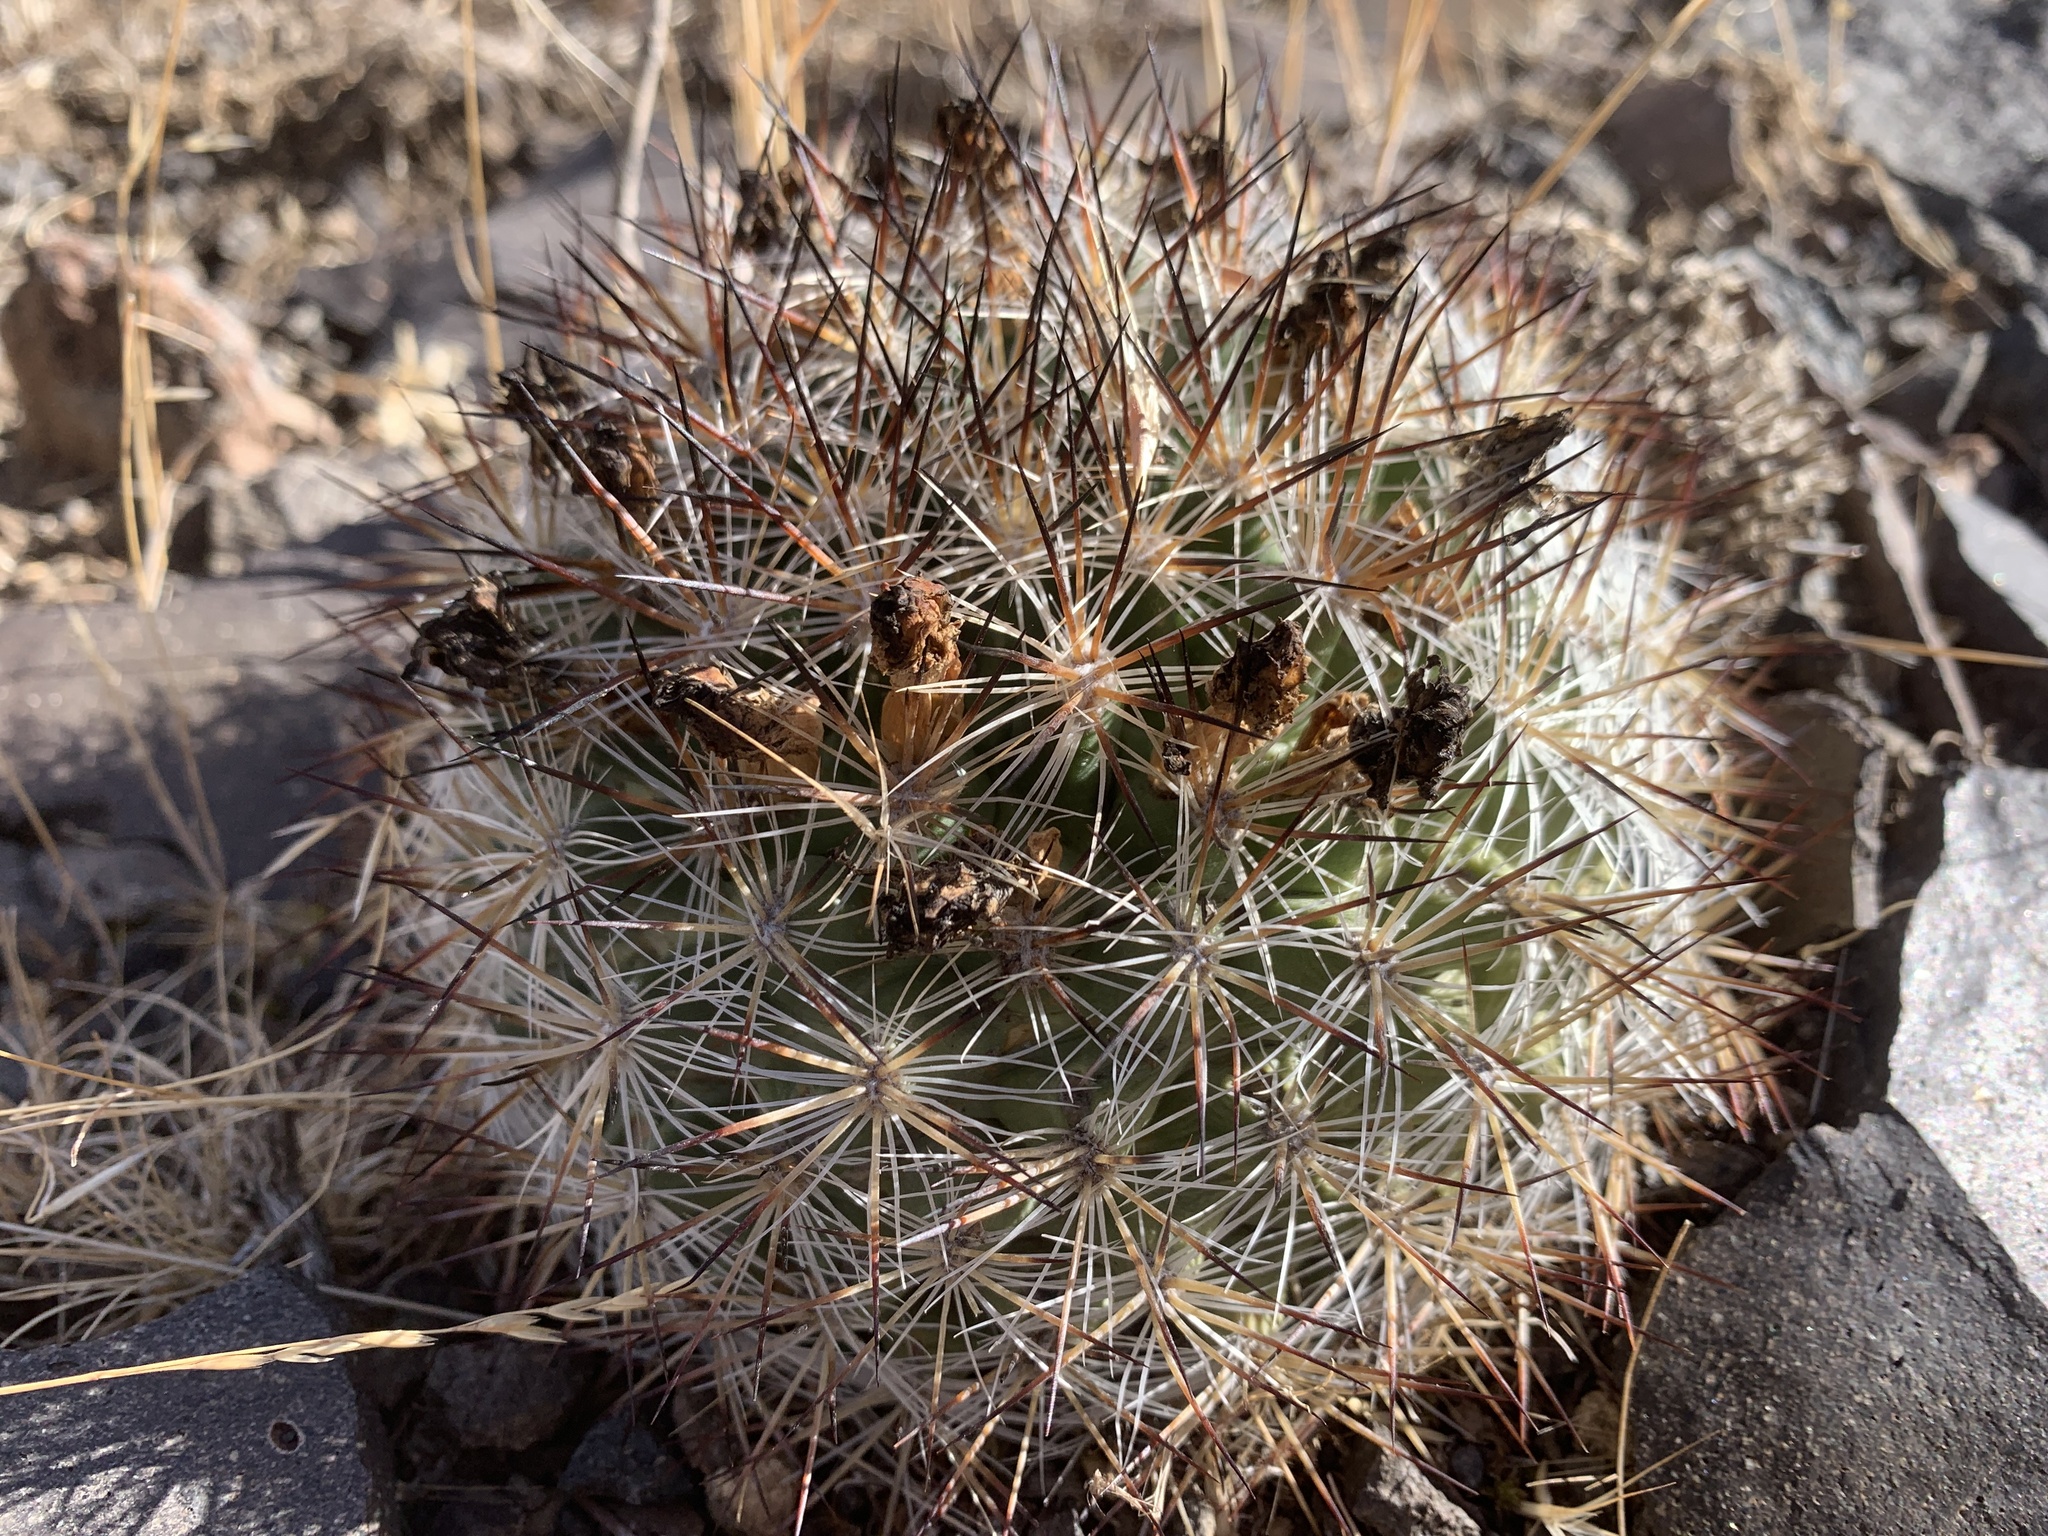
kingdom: Plantae
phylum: Tracheophyta
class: Magnoliopsida
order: Caryophyllales
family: Cactaceae
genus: Pediocactus
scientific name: Pediocactus simpsonii
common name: Simpson's hedgehog cactus
